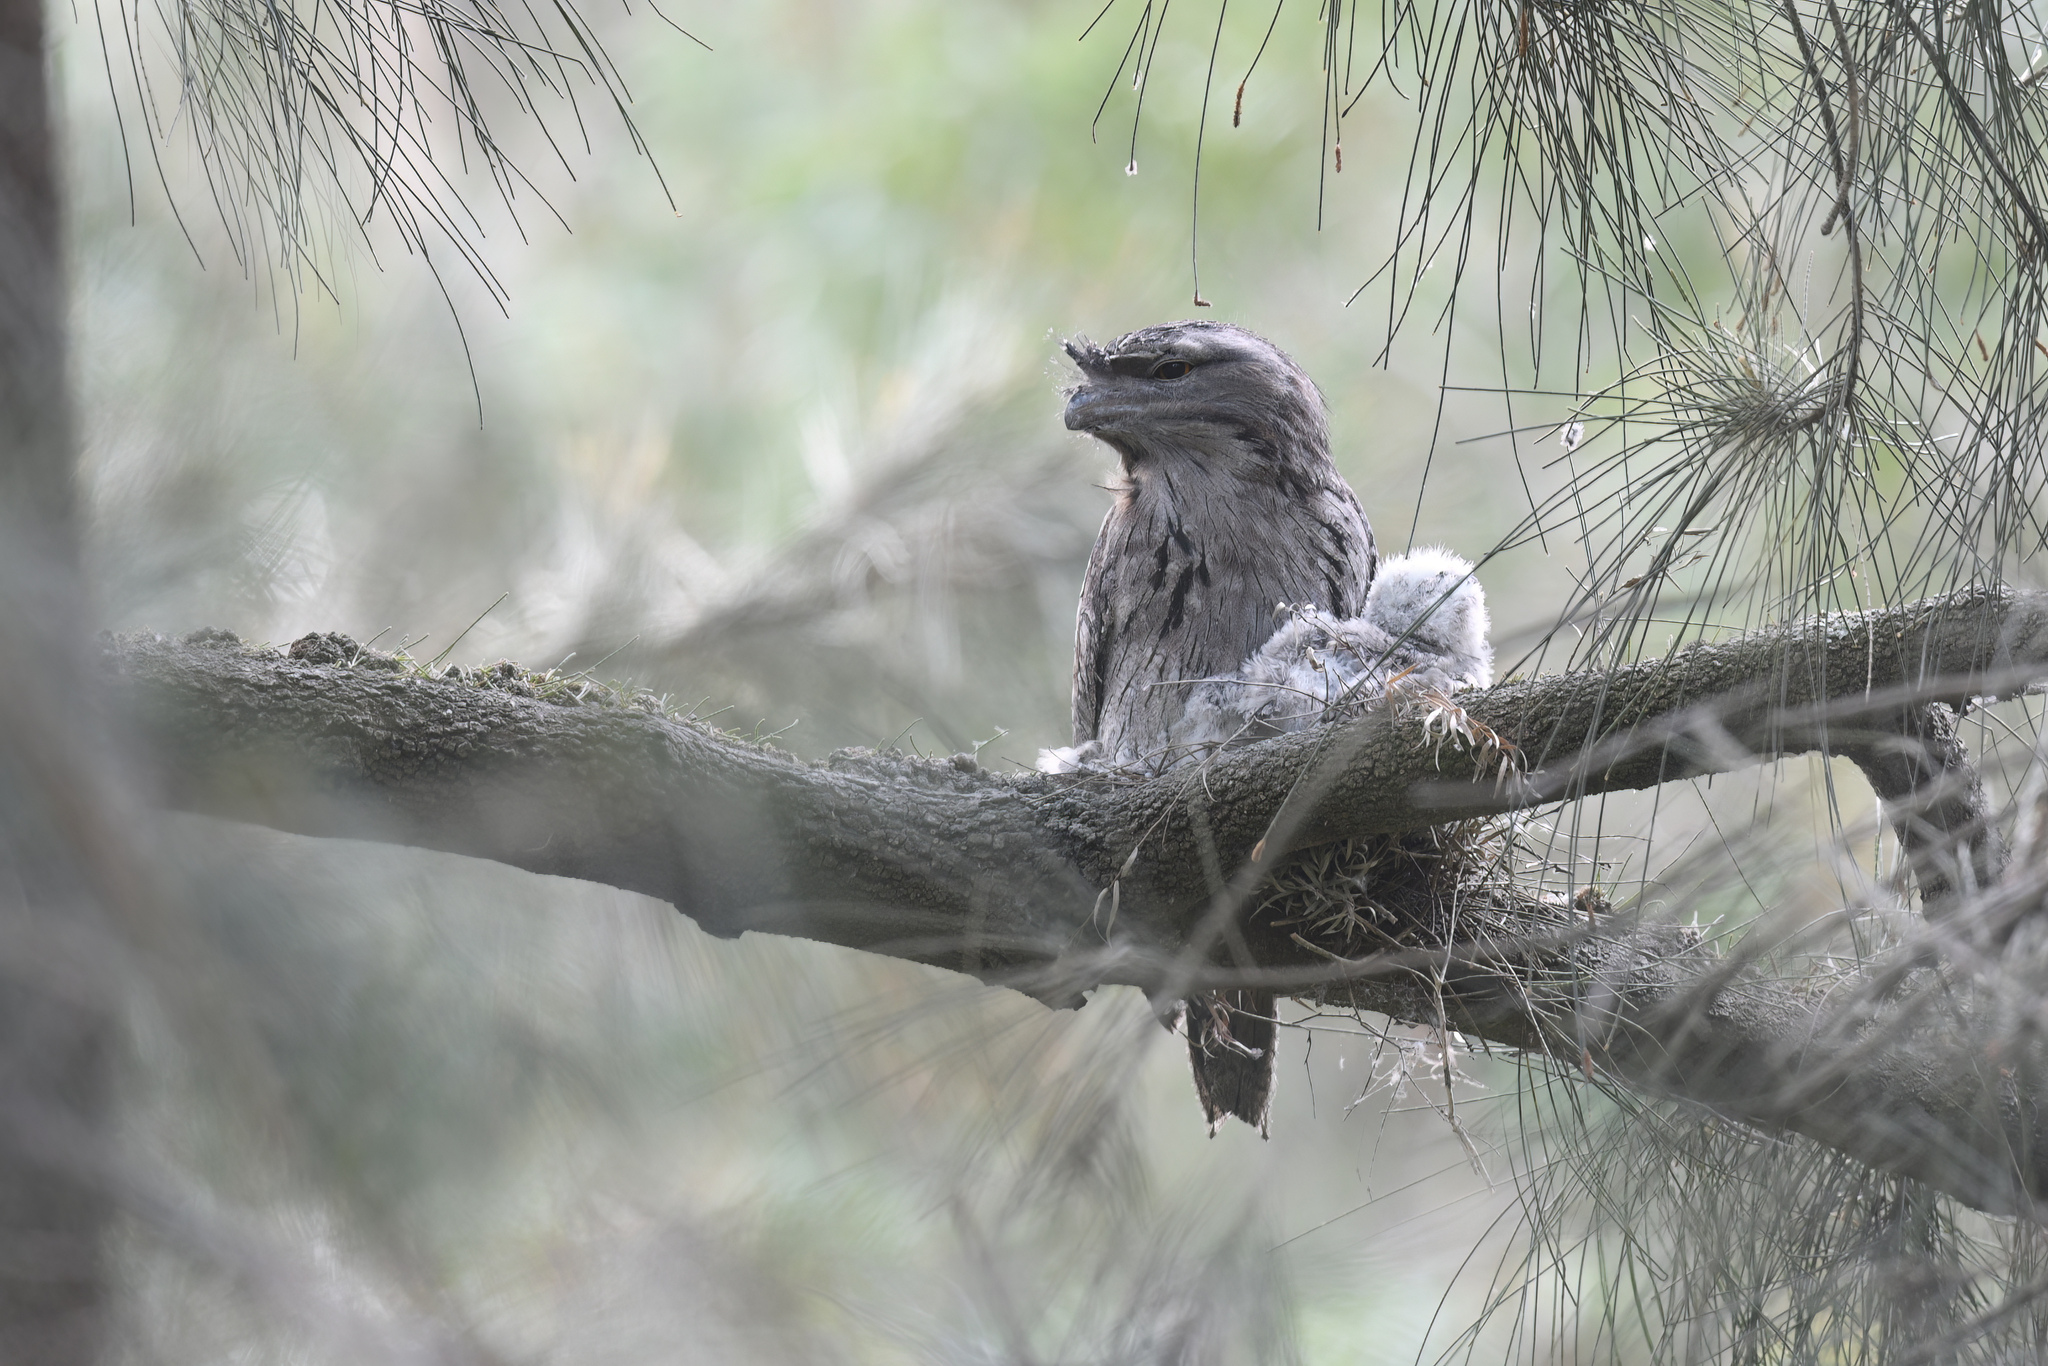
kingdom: Animalia
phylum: Chordata
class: Aves
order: Caprimulgiformes
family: Podargidae
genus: Podargus
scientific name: Podargus strigoides
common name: Tawny frogmouth
